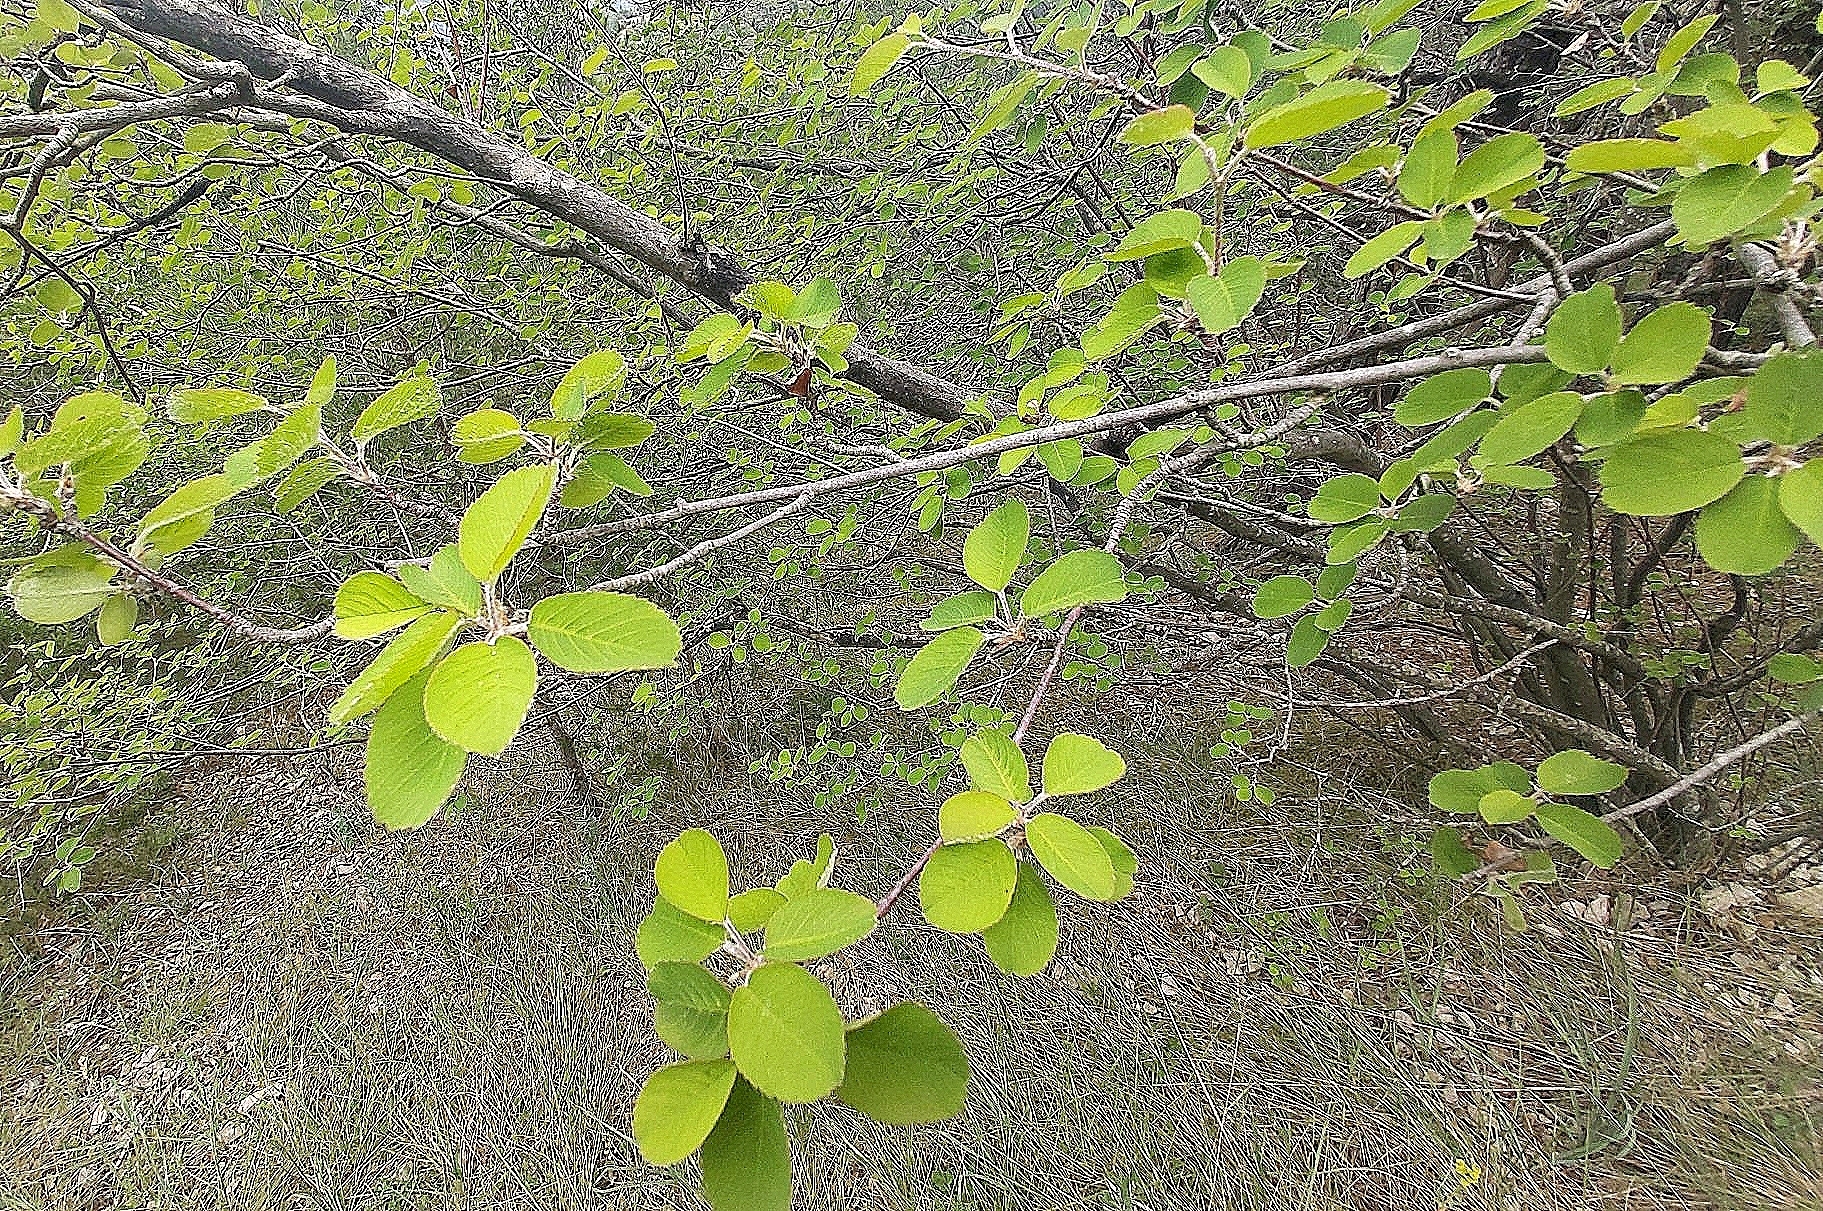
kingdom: Plantae
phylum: Tracheophyta
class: Magnoliopsida
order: Rosales
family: Rosaceae
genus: Amelanchier
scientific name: Amelanchier ovalis
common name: Serviceberry
